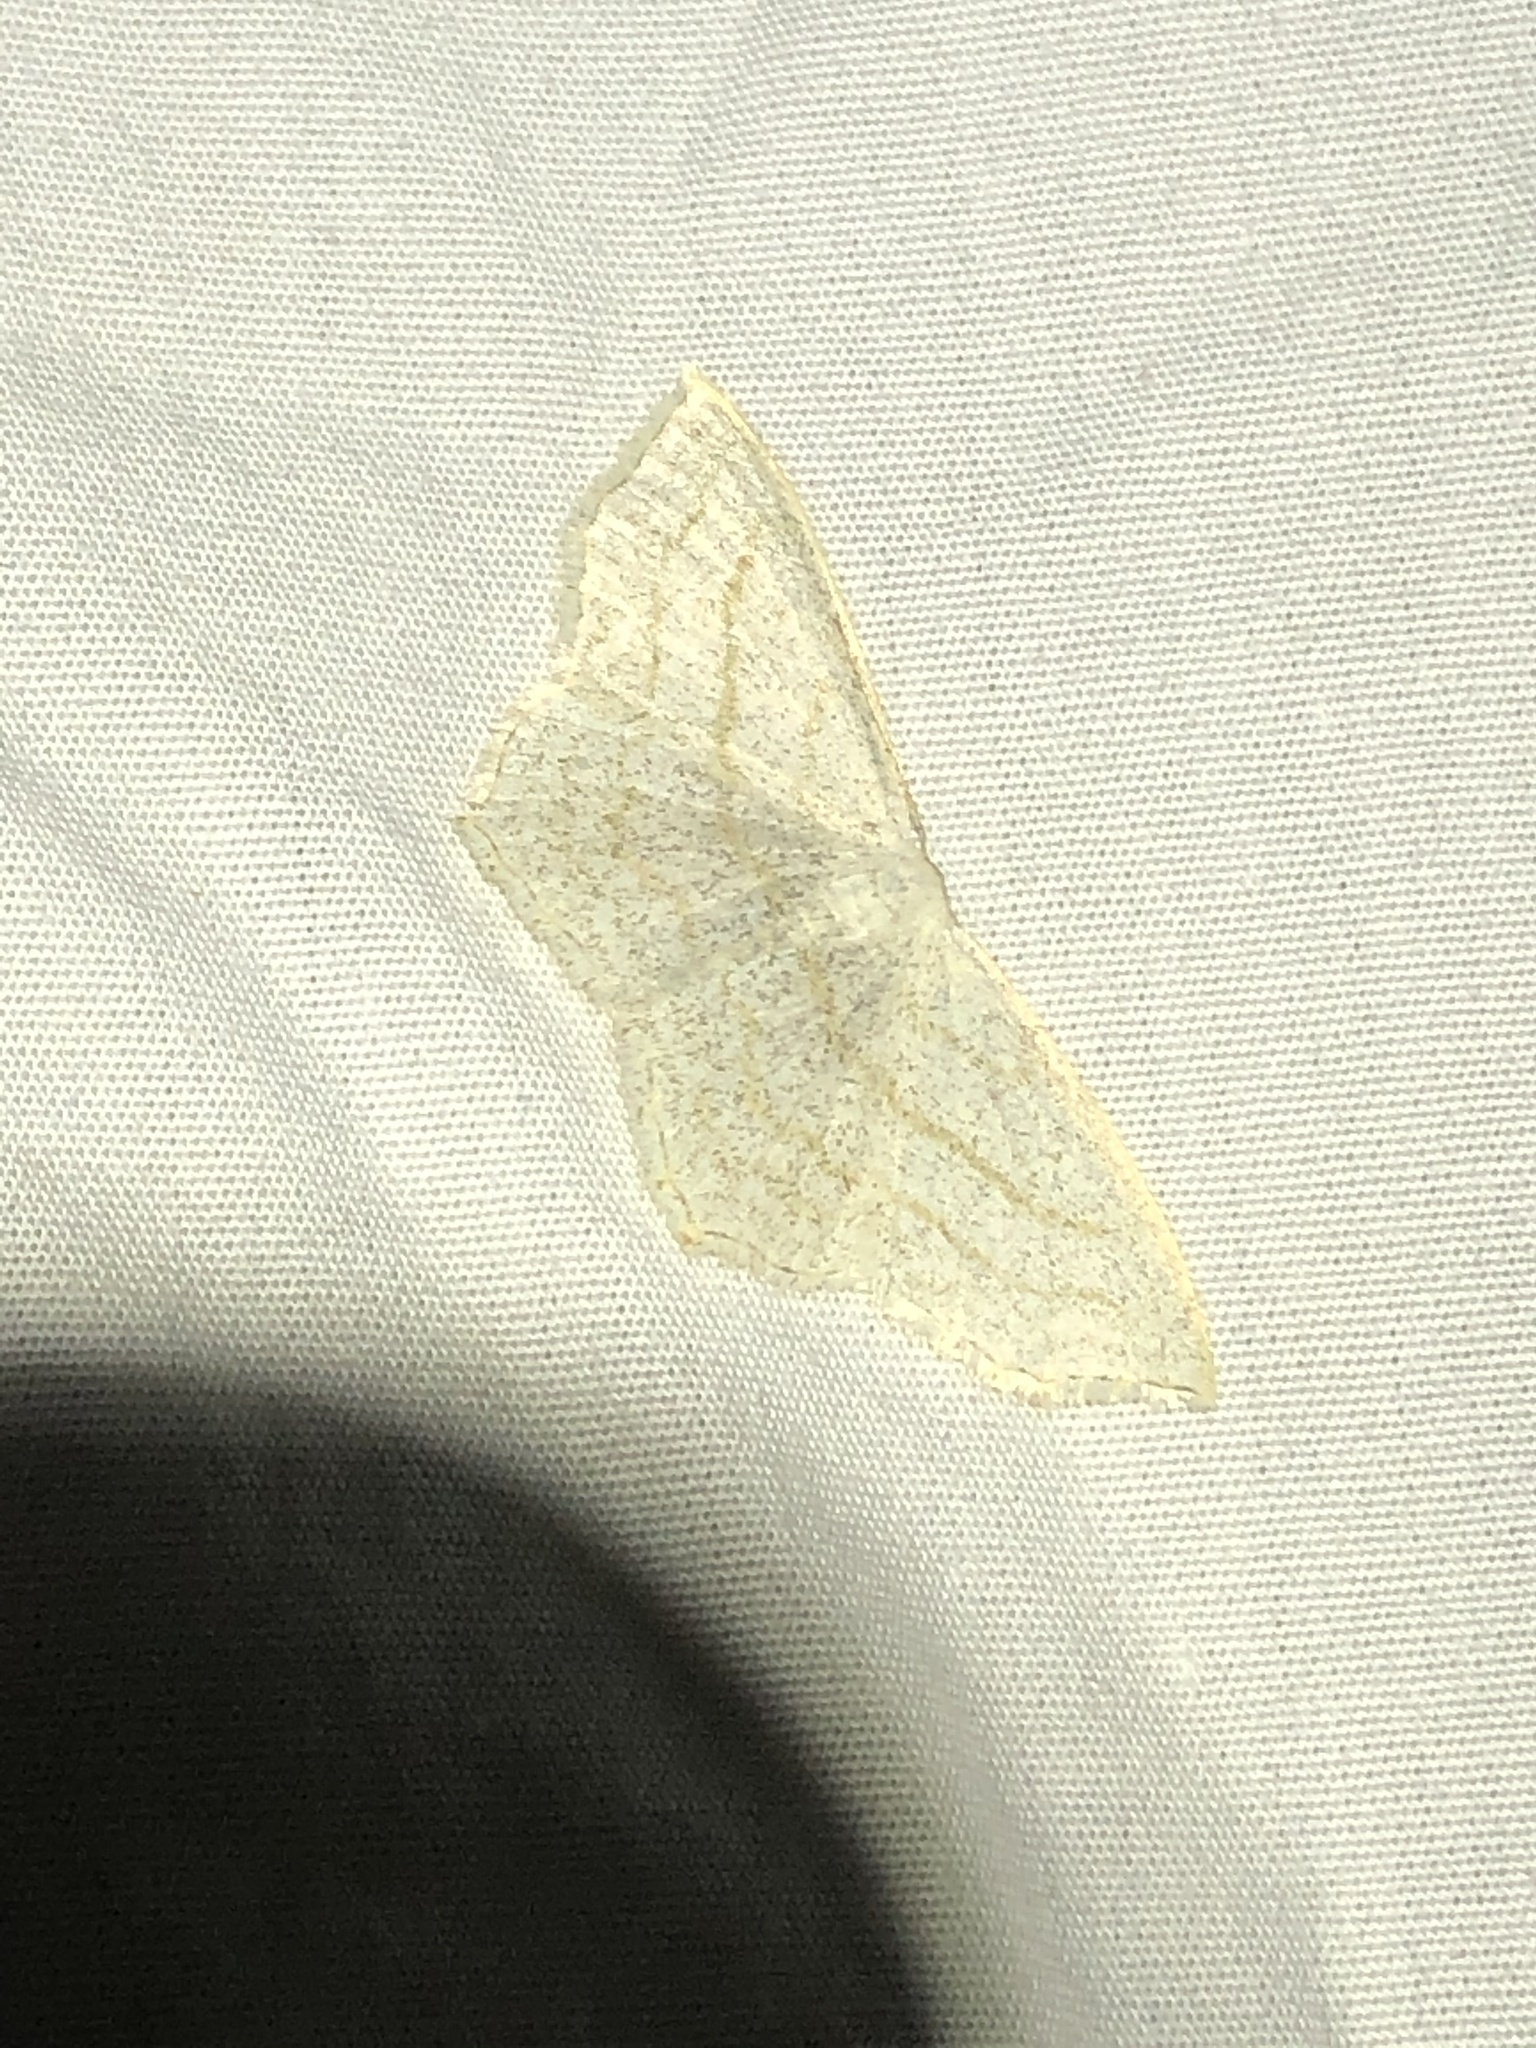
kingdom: Animalia
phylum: Arthropoda
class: Insecta
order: Lepidoptera
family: Geometridae
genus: Scopula
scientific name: Scopula junctaria
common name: Simple wave
